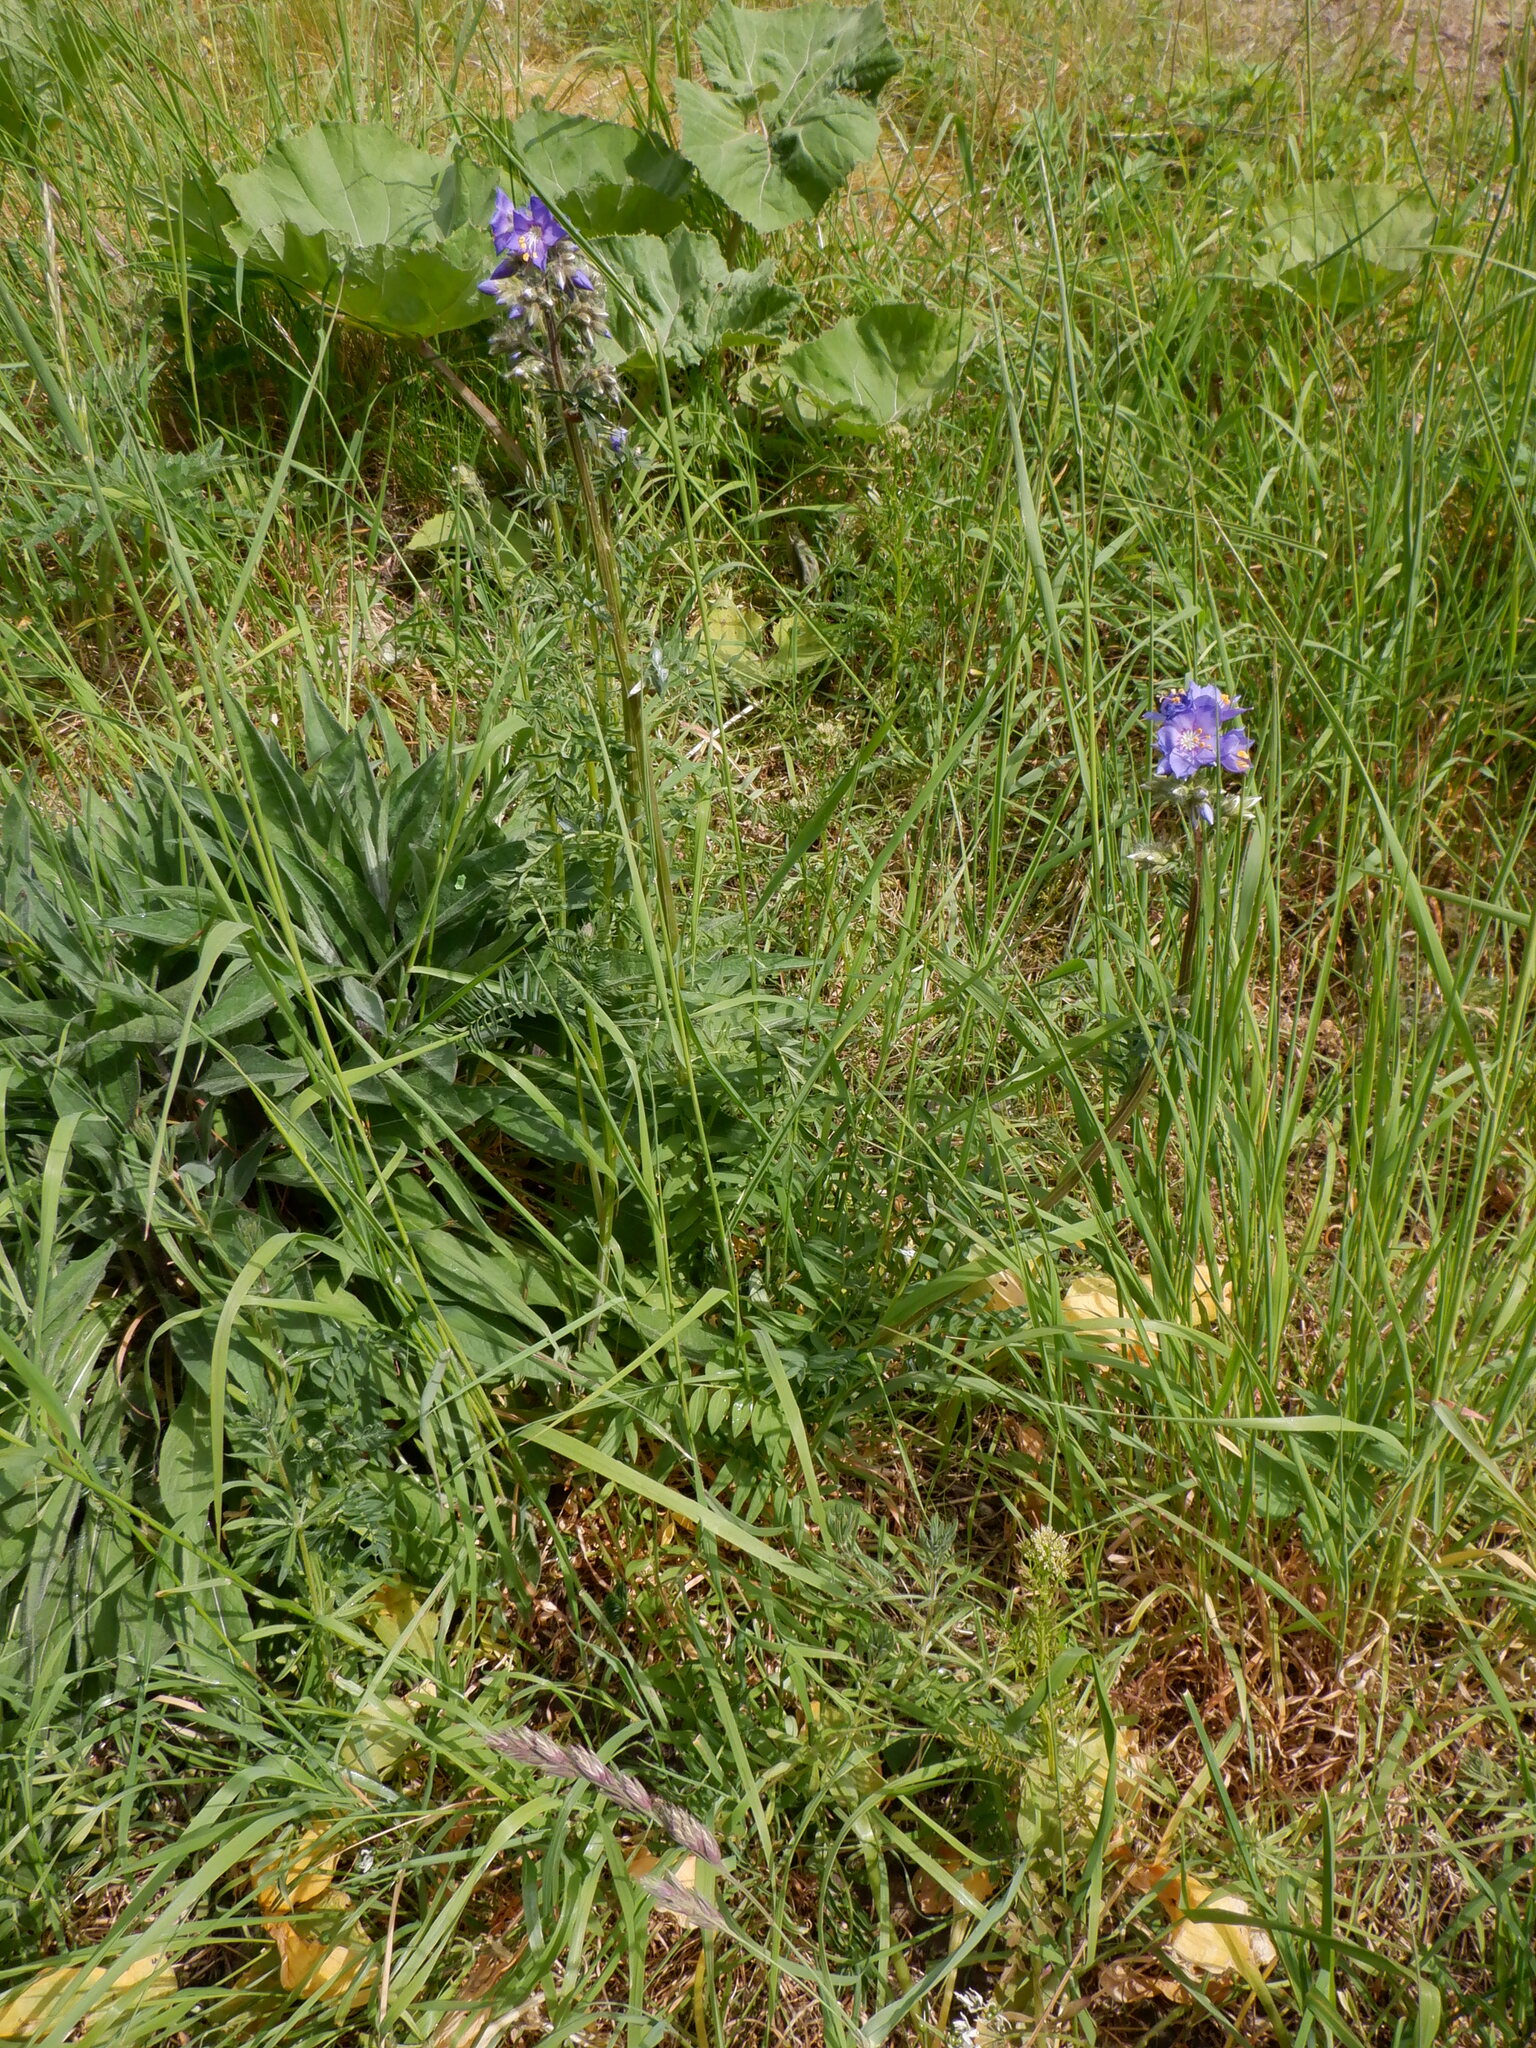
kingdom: Plantae
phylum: Tracheophyta
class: Magnoliopsida
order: Ericales
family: Polemoniaceae
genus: Polemonium
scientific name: Polemonium caeruleum
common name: Jacob's-ladder
